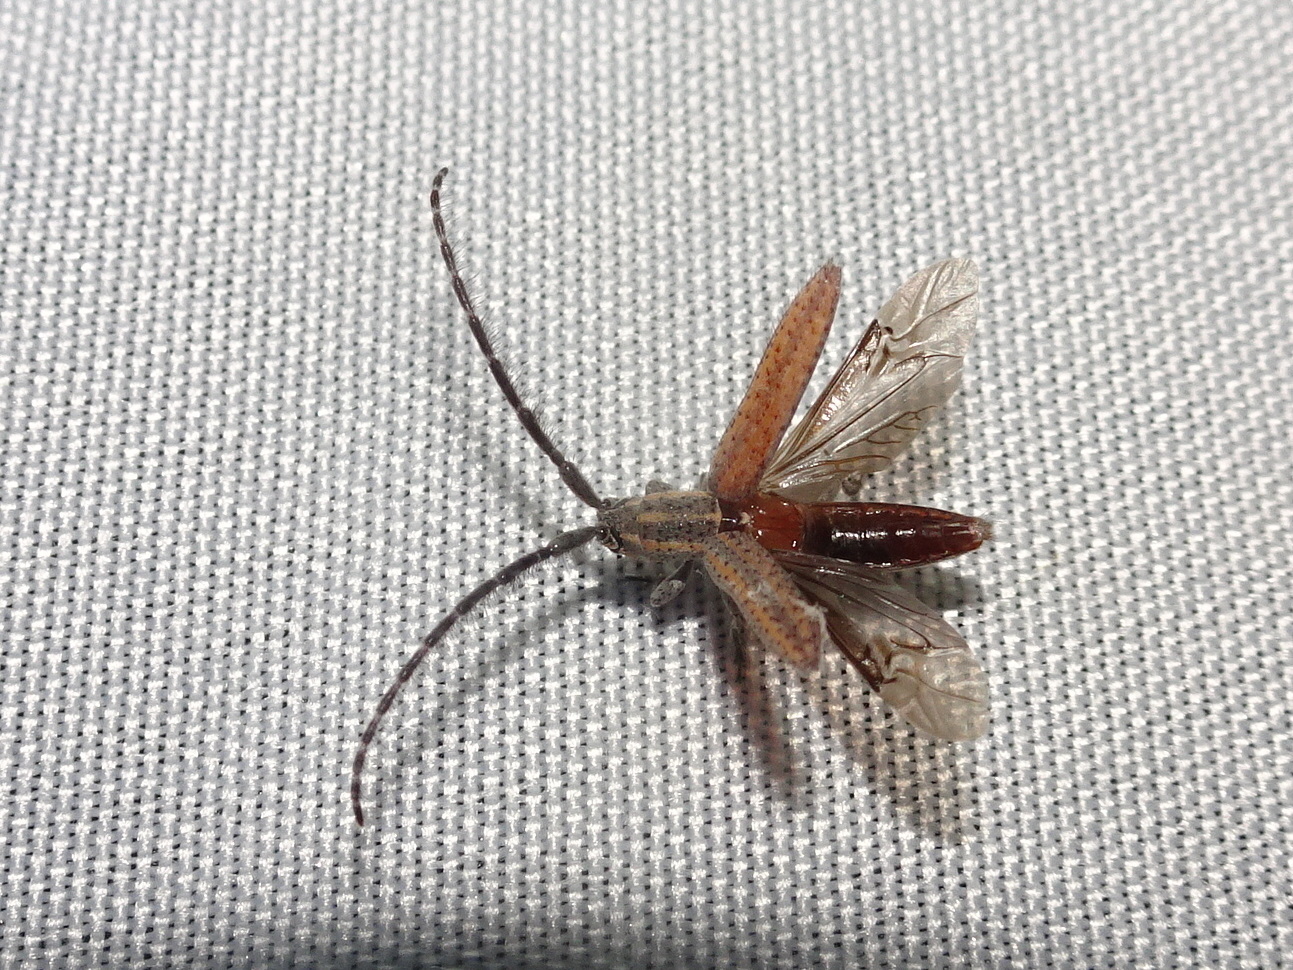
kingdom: Animalia
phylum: Arthropoda
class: Insecta
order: Coleoptera
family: Cerambycidae
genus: Dorcasta
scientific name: Dorcasta cinerea
